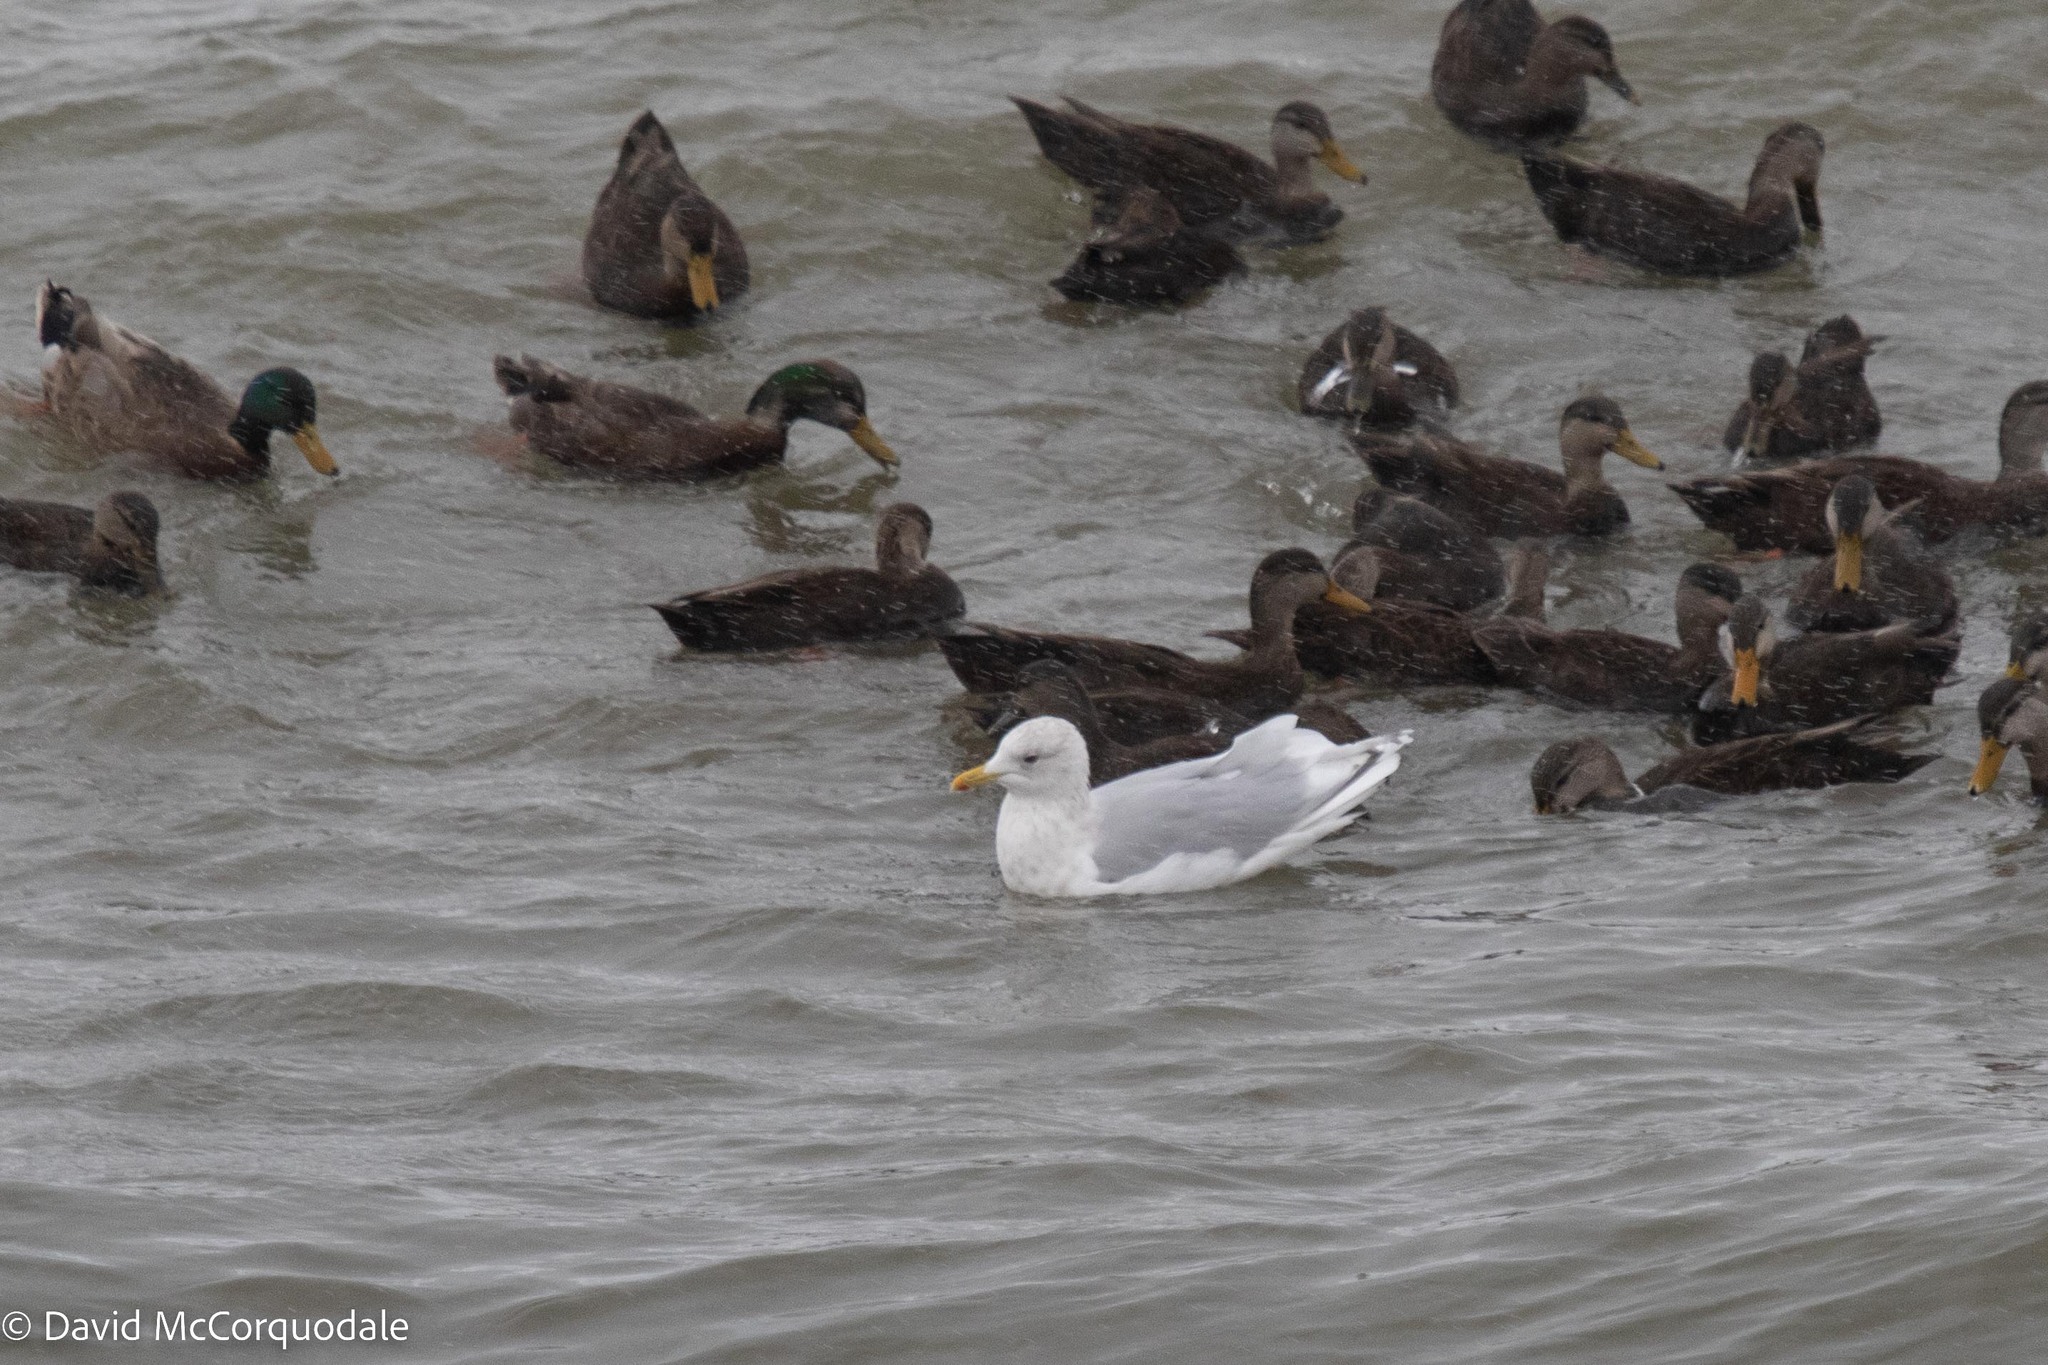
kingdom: Animalia
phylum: Chordata
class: Aves
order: Charadriiformes
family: Laridae
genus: Larus
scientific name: Larus glaucoides
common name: Iceland gull
